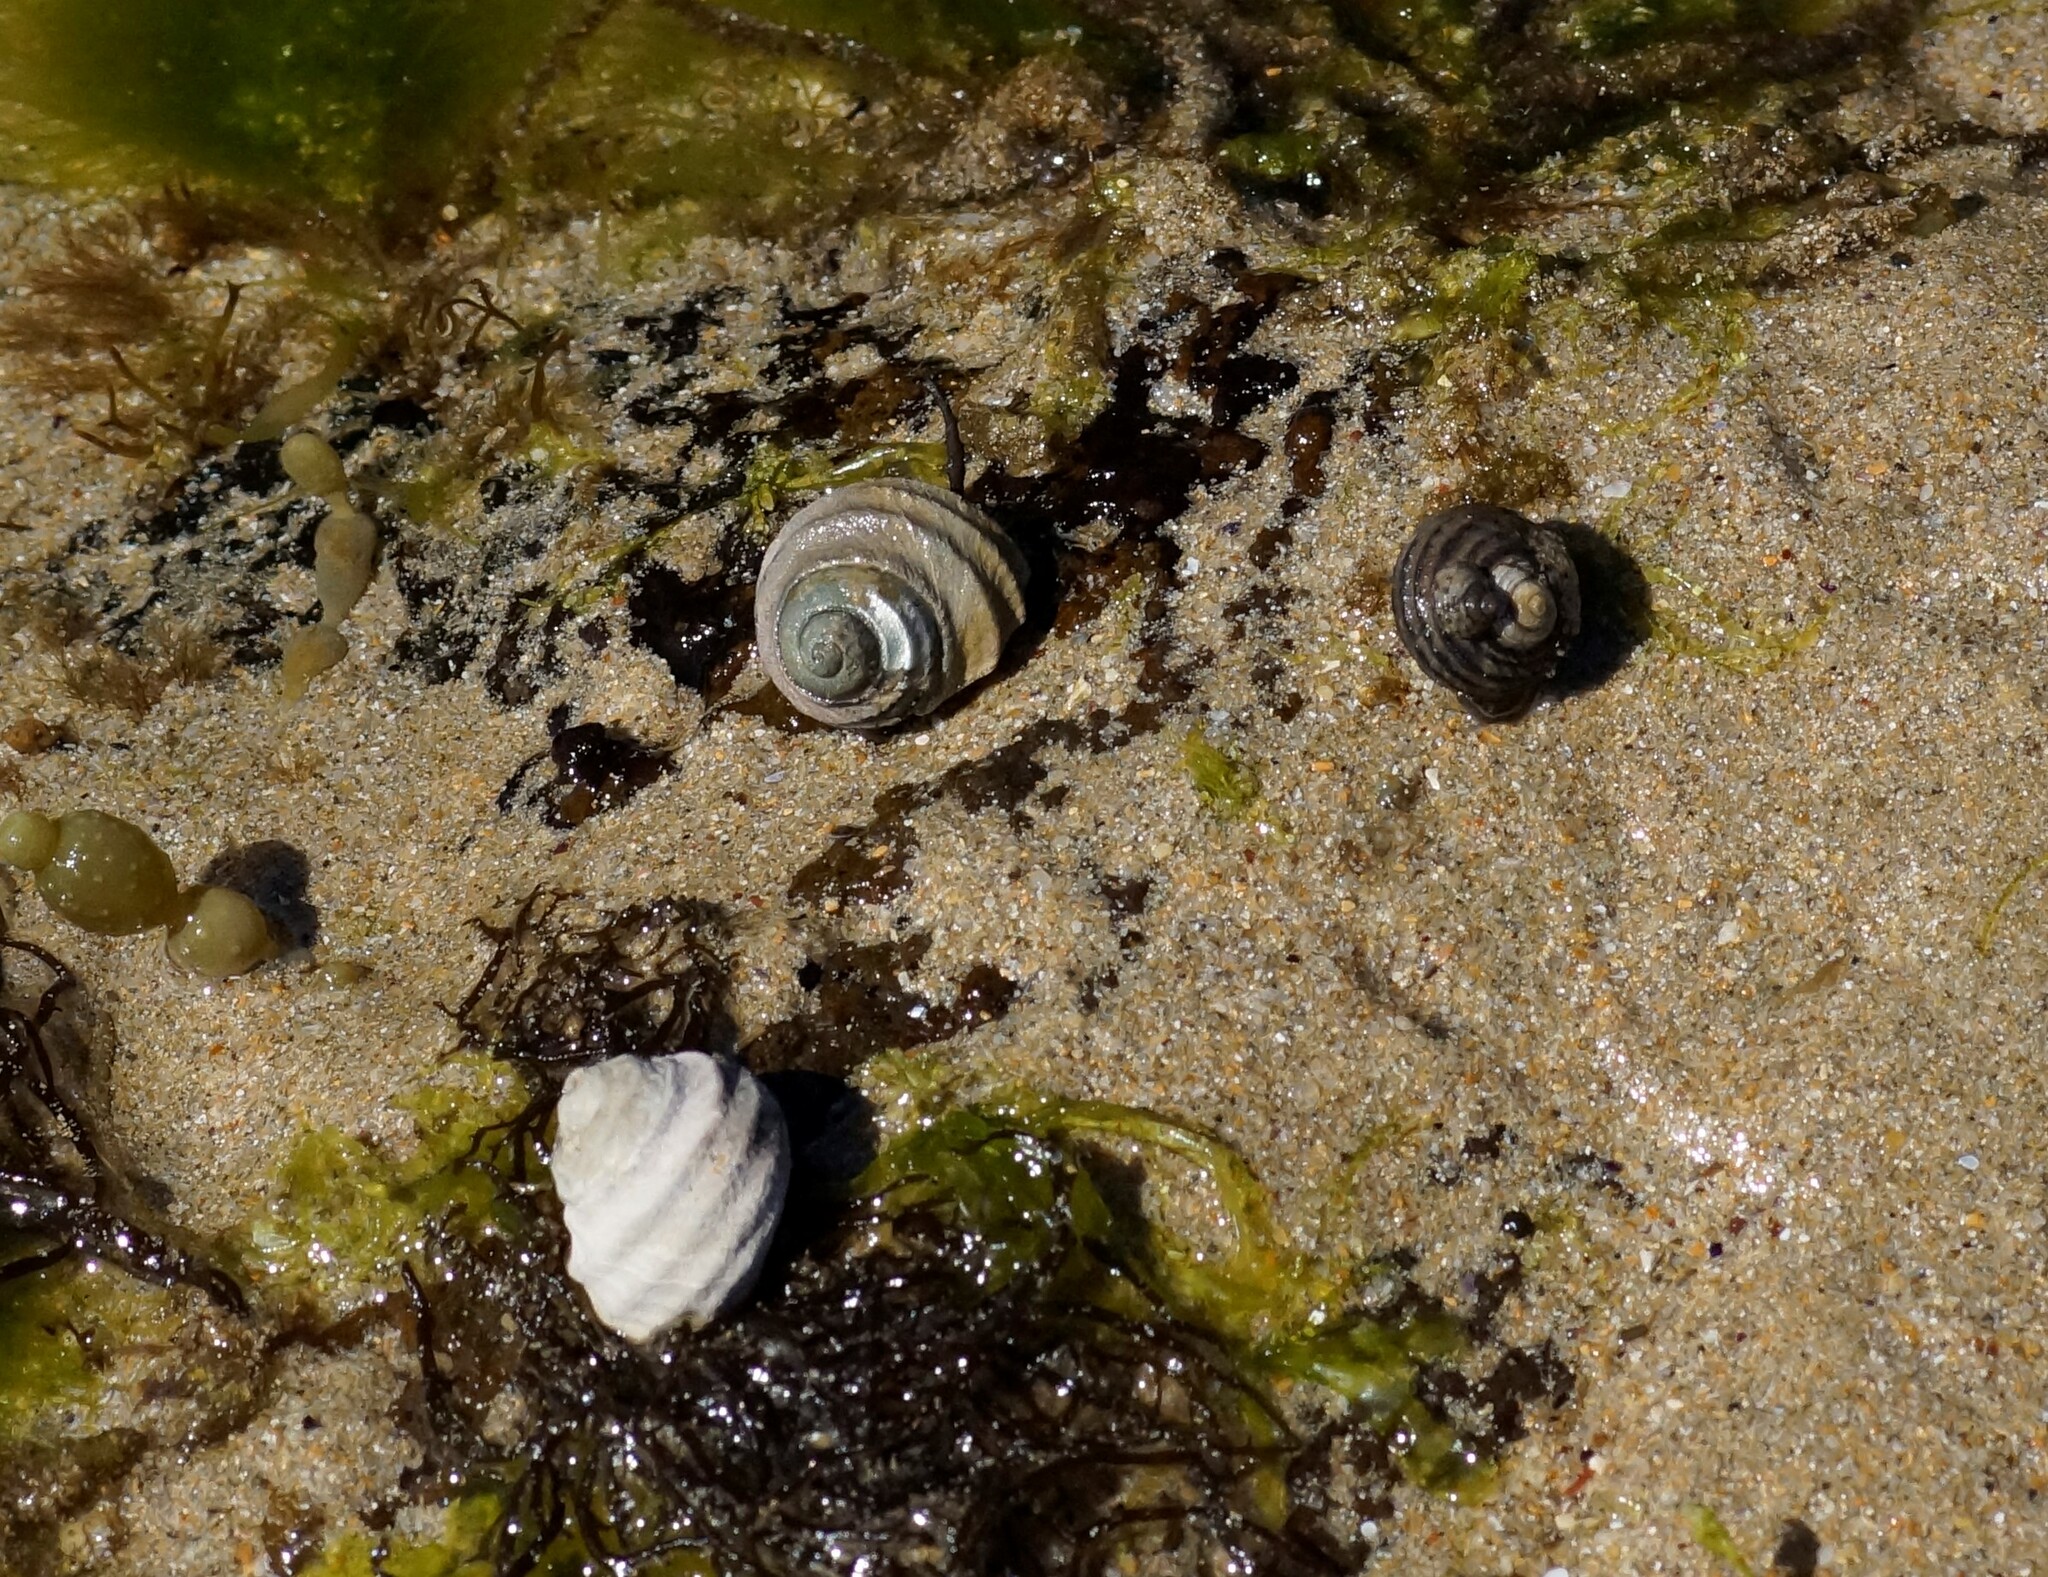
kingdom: Animalia
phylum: Mollusca
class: Gastropoda
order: Trochida
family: Trochidae
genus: Austrocochlea
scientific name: Austrocochlea constricta
